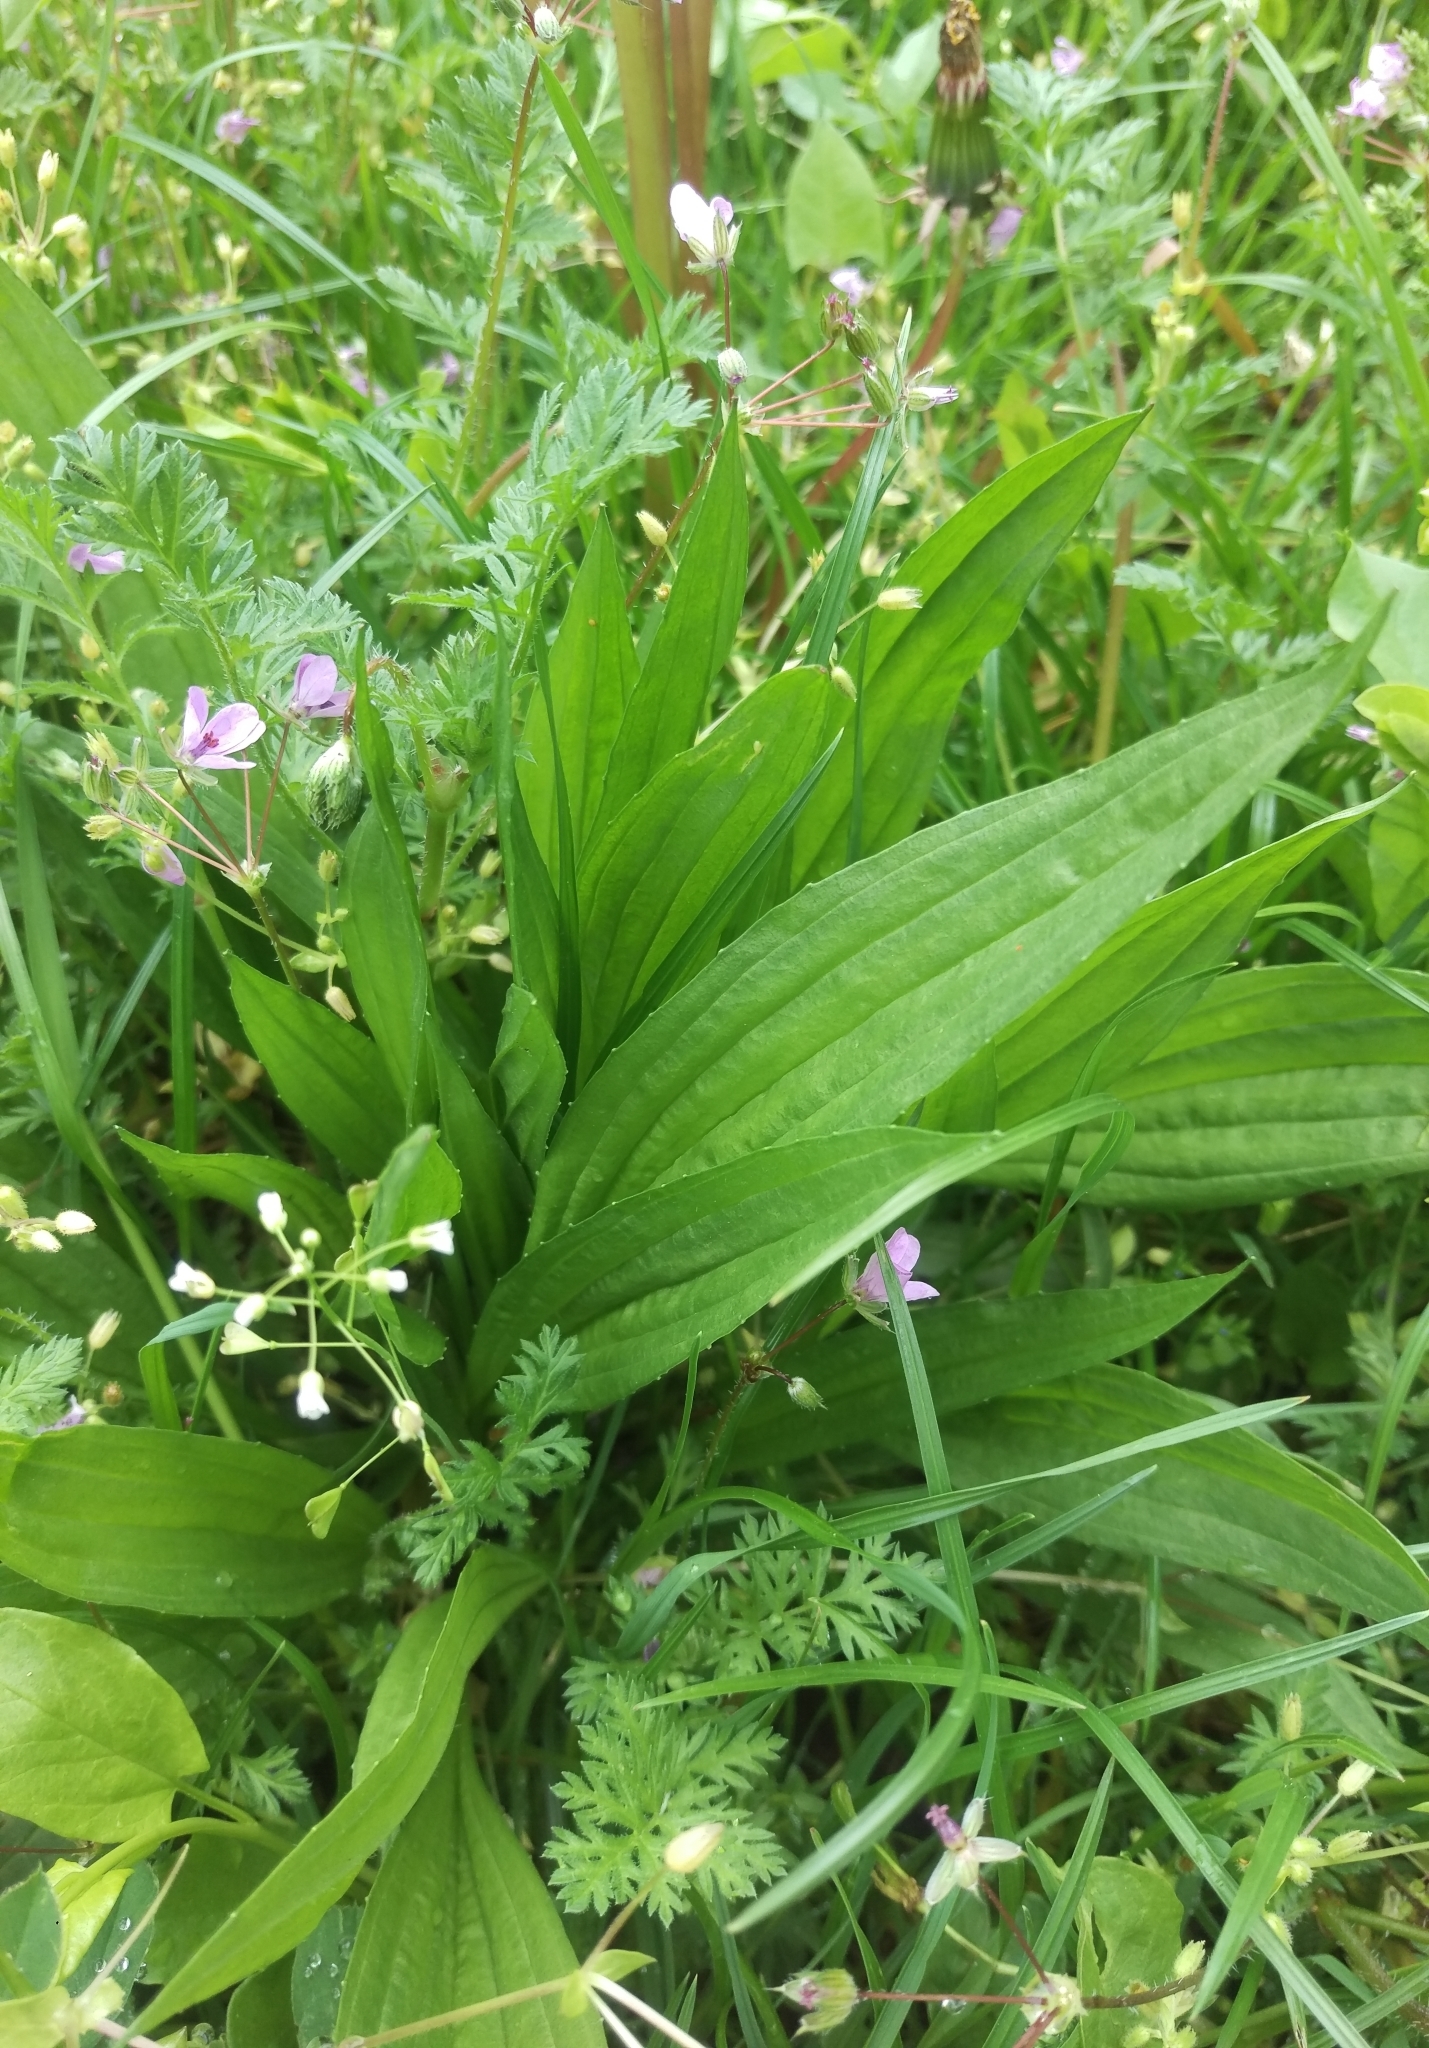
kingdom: Plantae
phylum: Tracheophyta
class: Magnoliopsida
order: Lamiales
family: Plantaginaceae
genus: Plantago
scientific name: Plantago lanceolata
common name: Ribwort plantain
